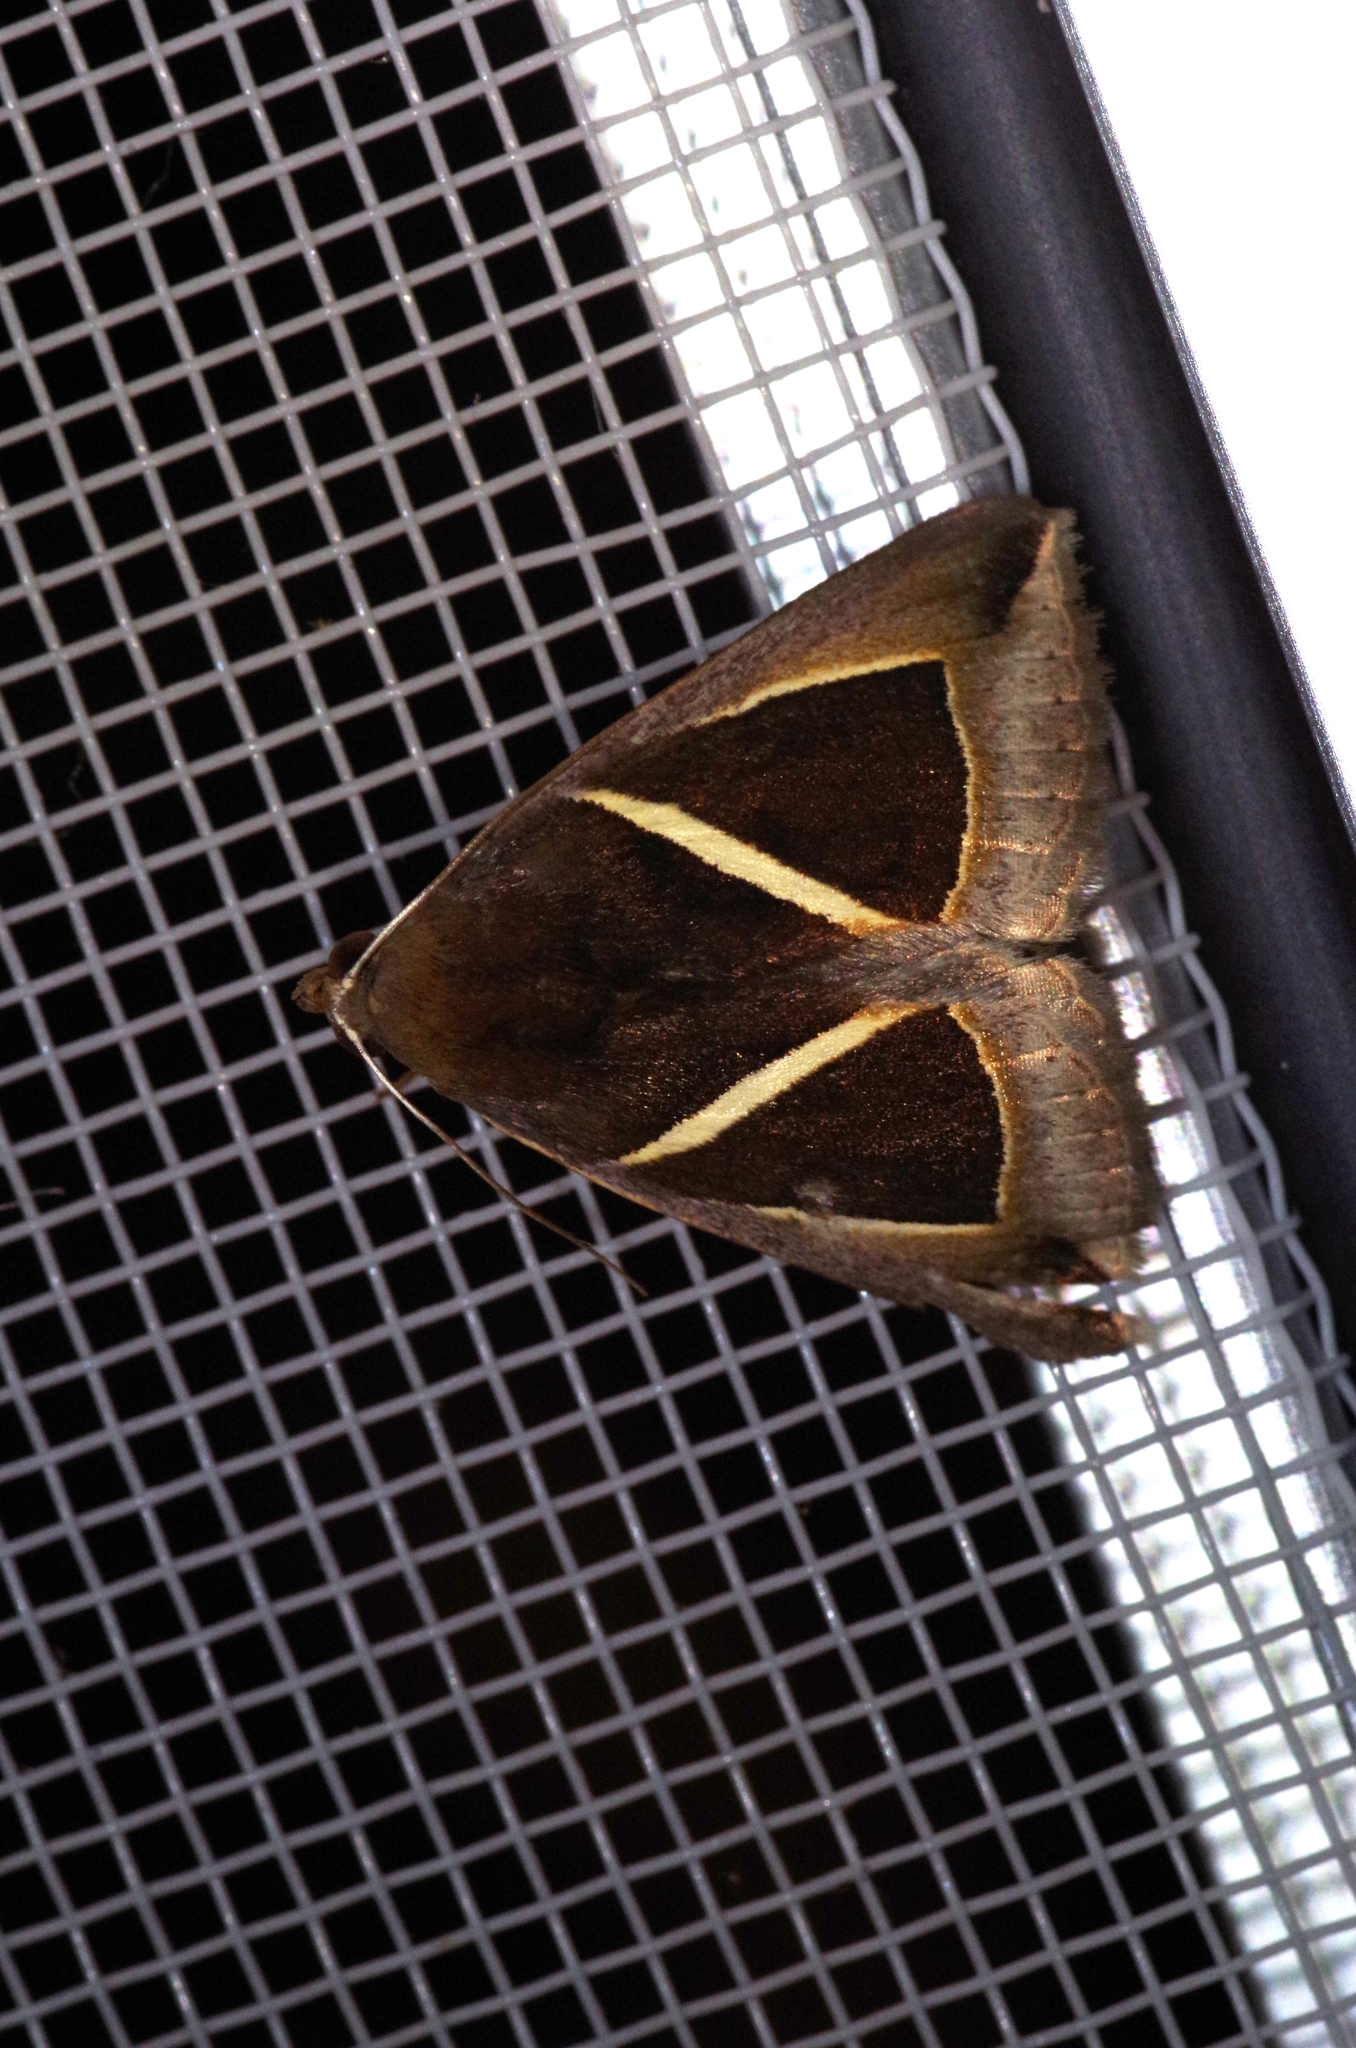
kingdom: Animalia
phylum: Arthropoda
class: Insecta
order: Lepidoptera
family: Erebidae
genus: Chalciope
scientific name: Chalciope mygdon
